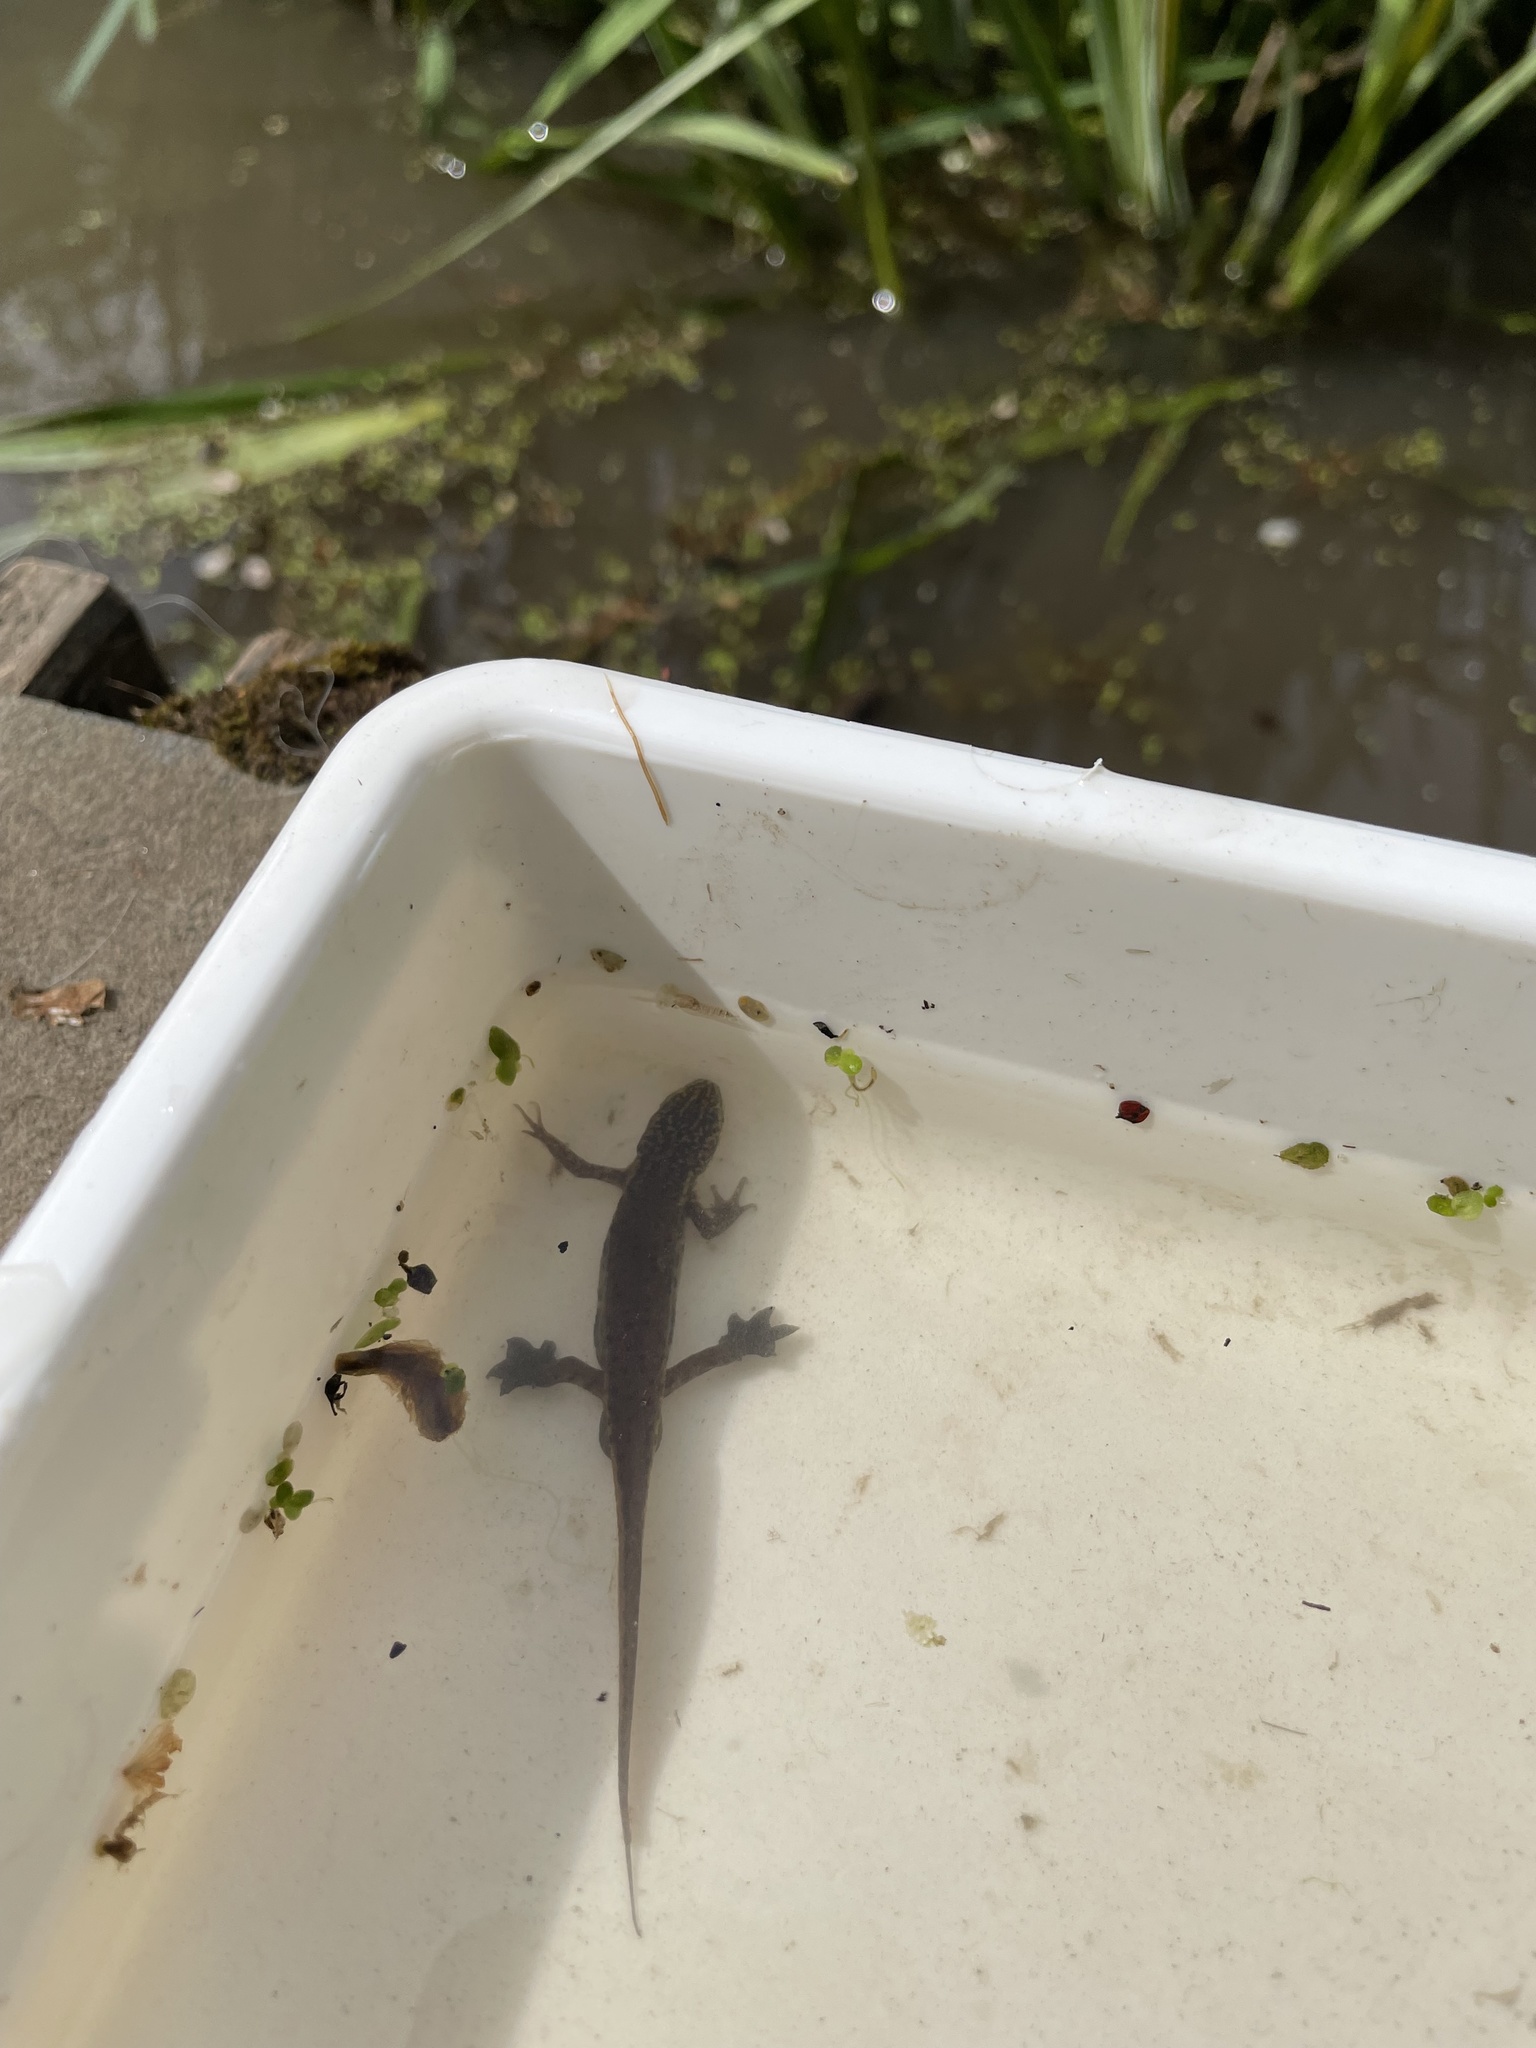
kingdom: Animalia
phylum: Chordata
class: Amphibia
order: Caudata
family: Salamandridae
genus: Lissotriton
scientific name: Lissotriton helveticus
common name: Palmate newt
